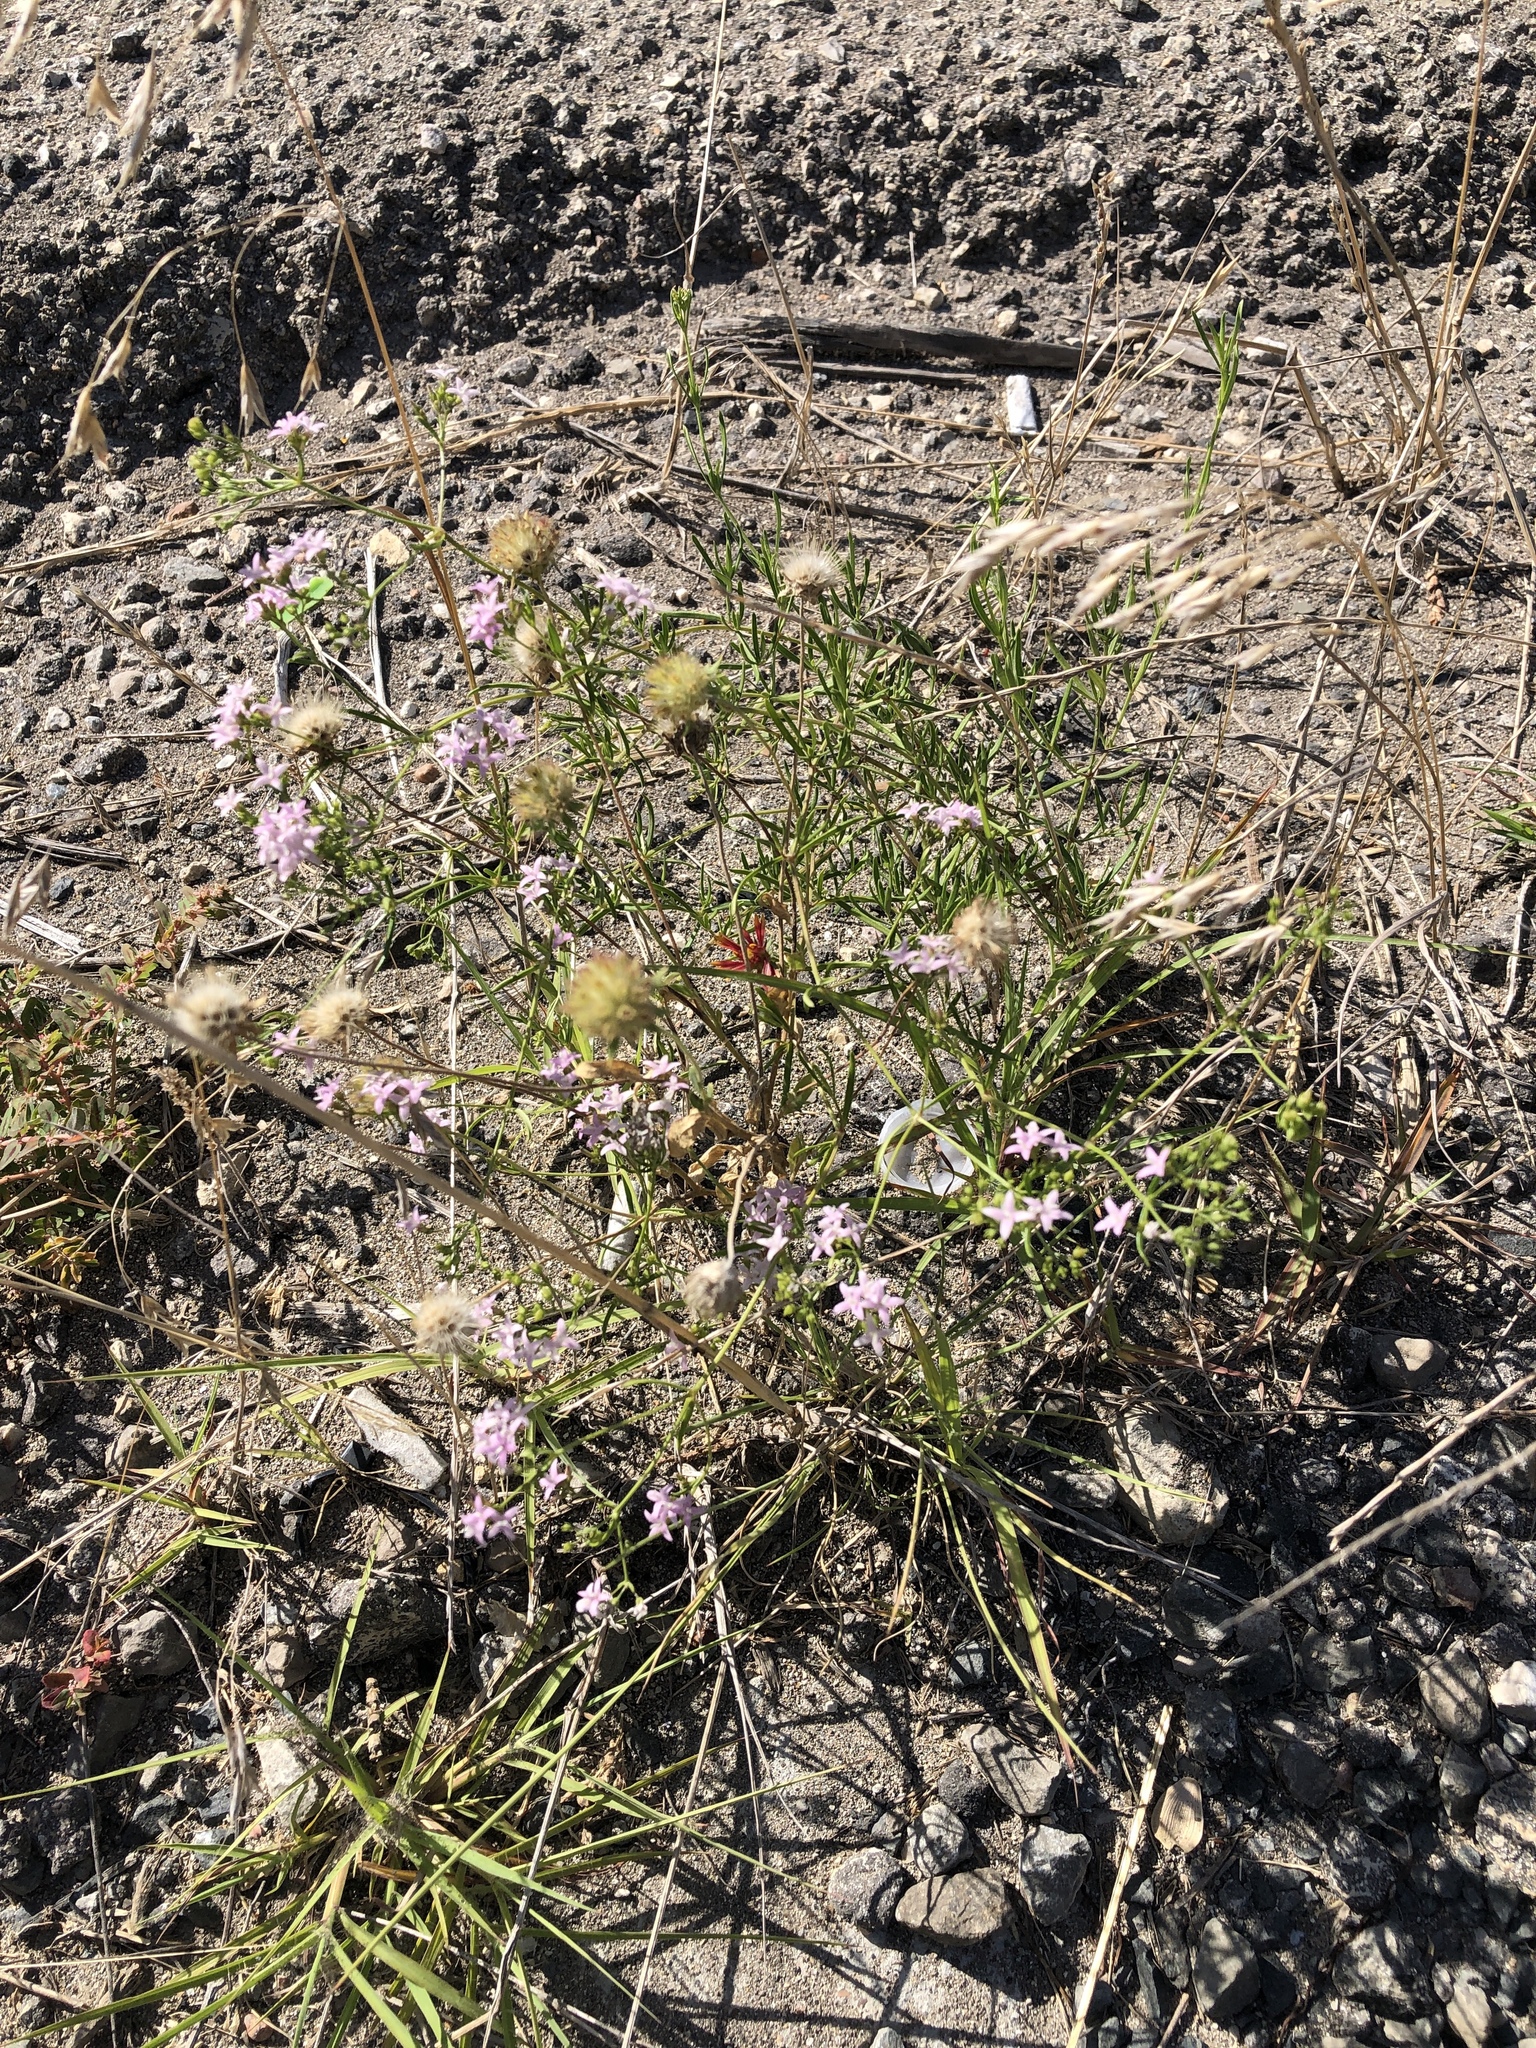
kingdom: Plantae
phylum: Tracheophyta
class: Magnoliopsida
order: Gentianales
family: Rubiaceae
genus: Stenaria
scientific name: Stenaria nigricans
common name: Diamondflowers
